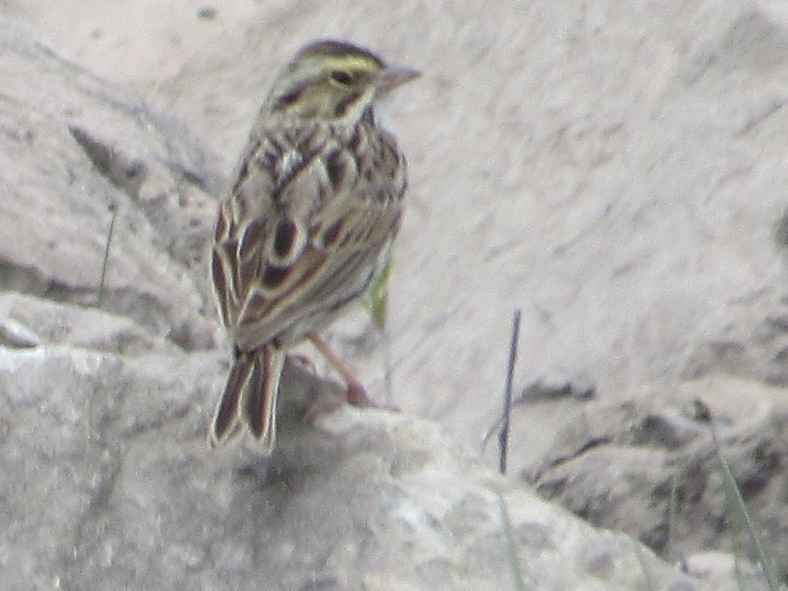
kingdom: Animalia
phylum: Chordata
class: Aves
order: Passeriformes
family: Passerellidae
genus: Passerculus
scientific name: Passerculus sandwichensis
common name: Savannah sparrow
